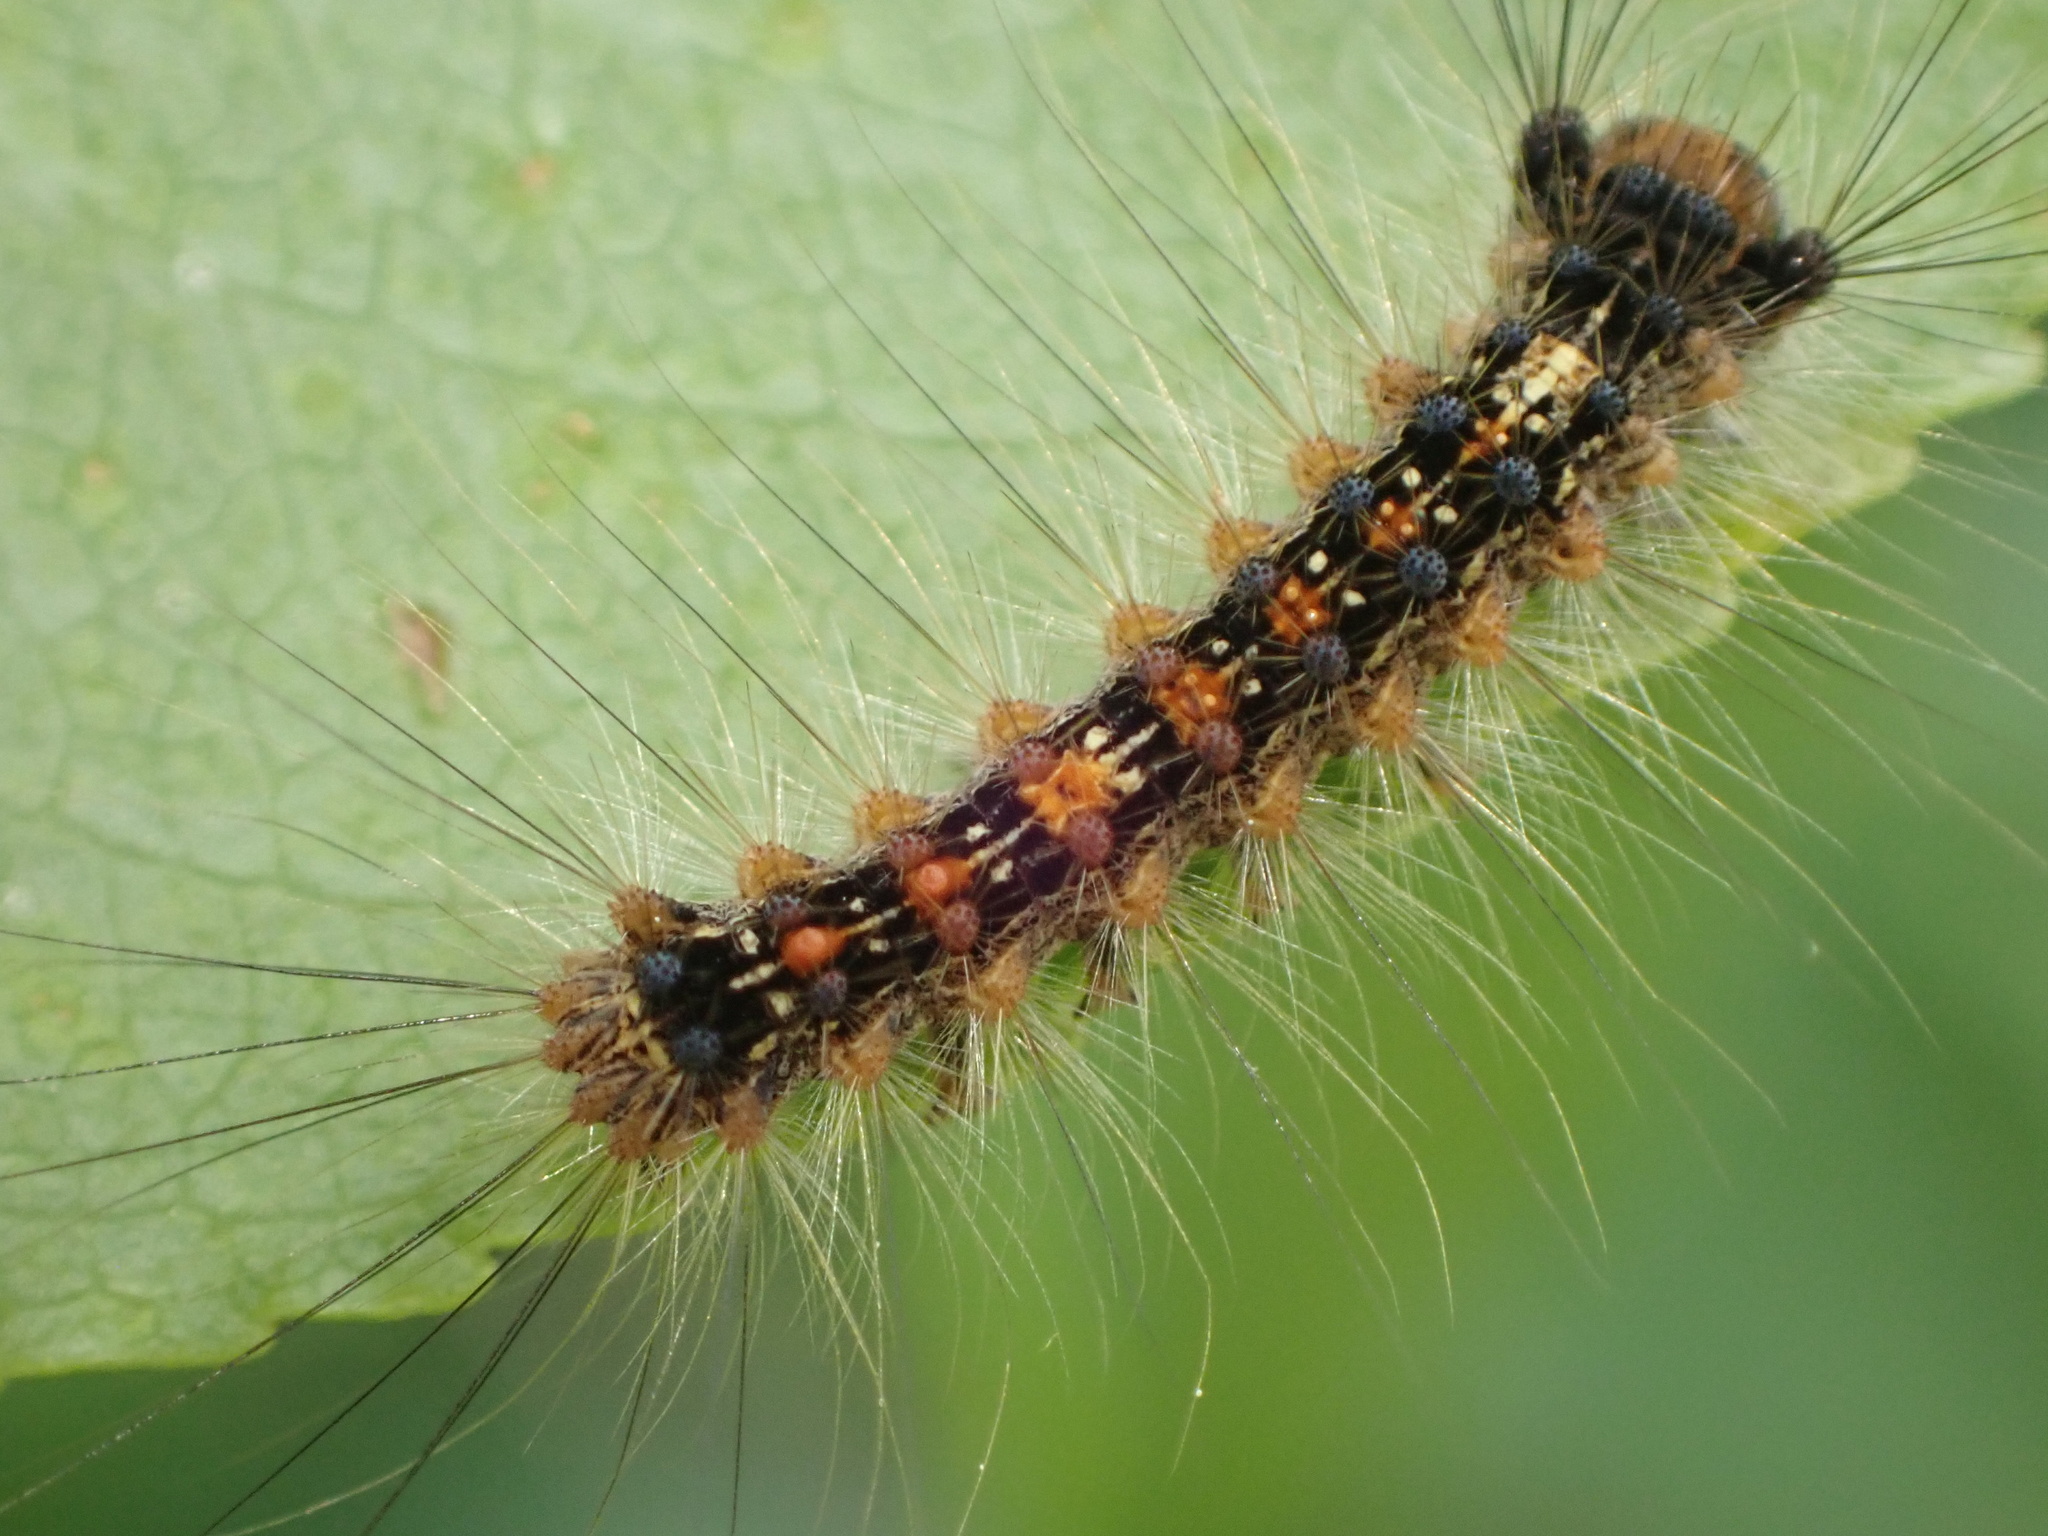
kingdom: Animalia
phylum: Arthropoda
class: Insecta
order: Lepidoptera
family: Erebidae
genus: Lymantria
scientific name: Lymantria dispar
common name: Gypsy moth
